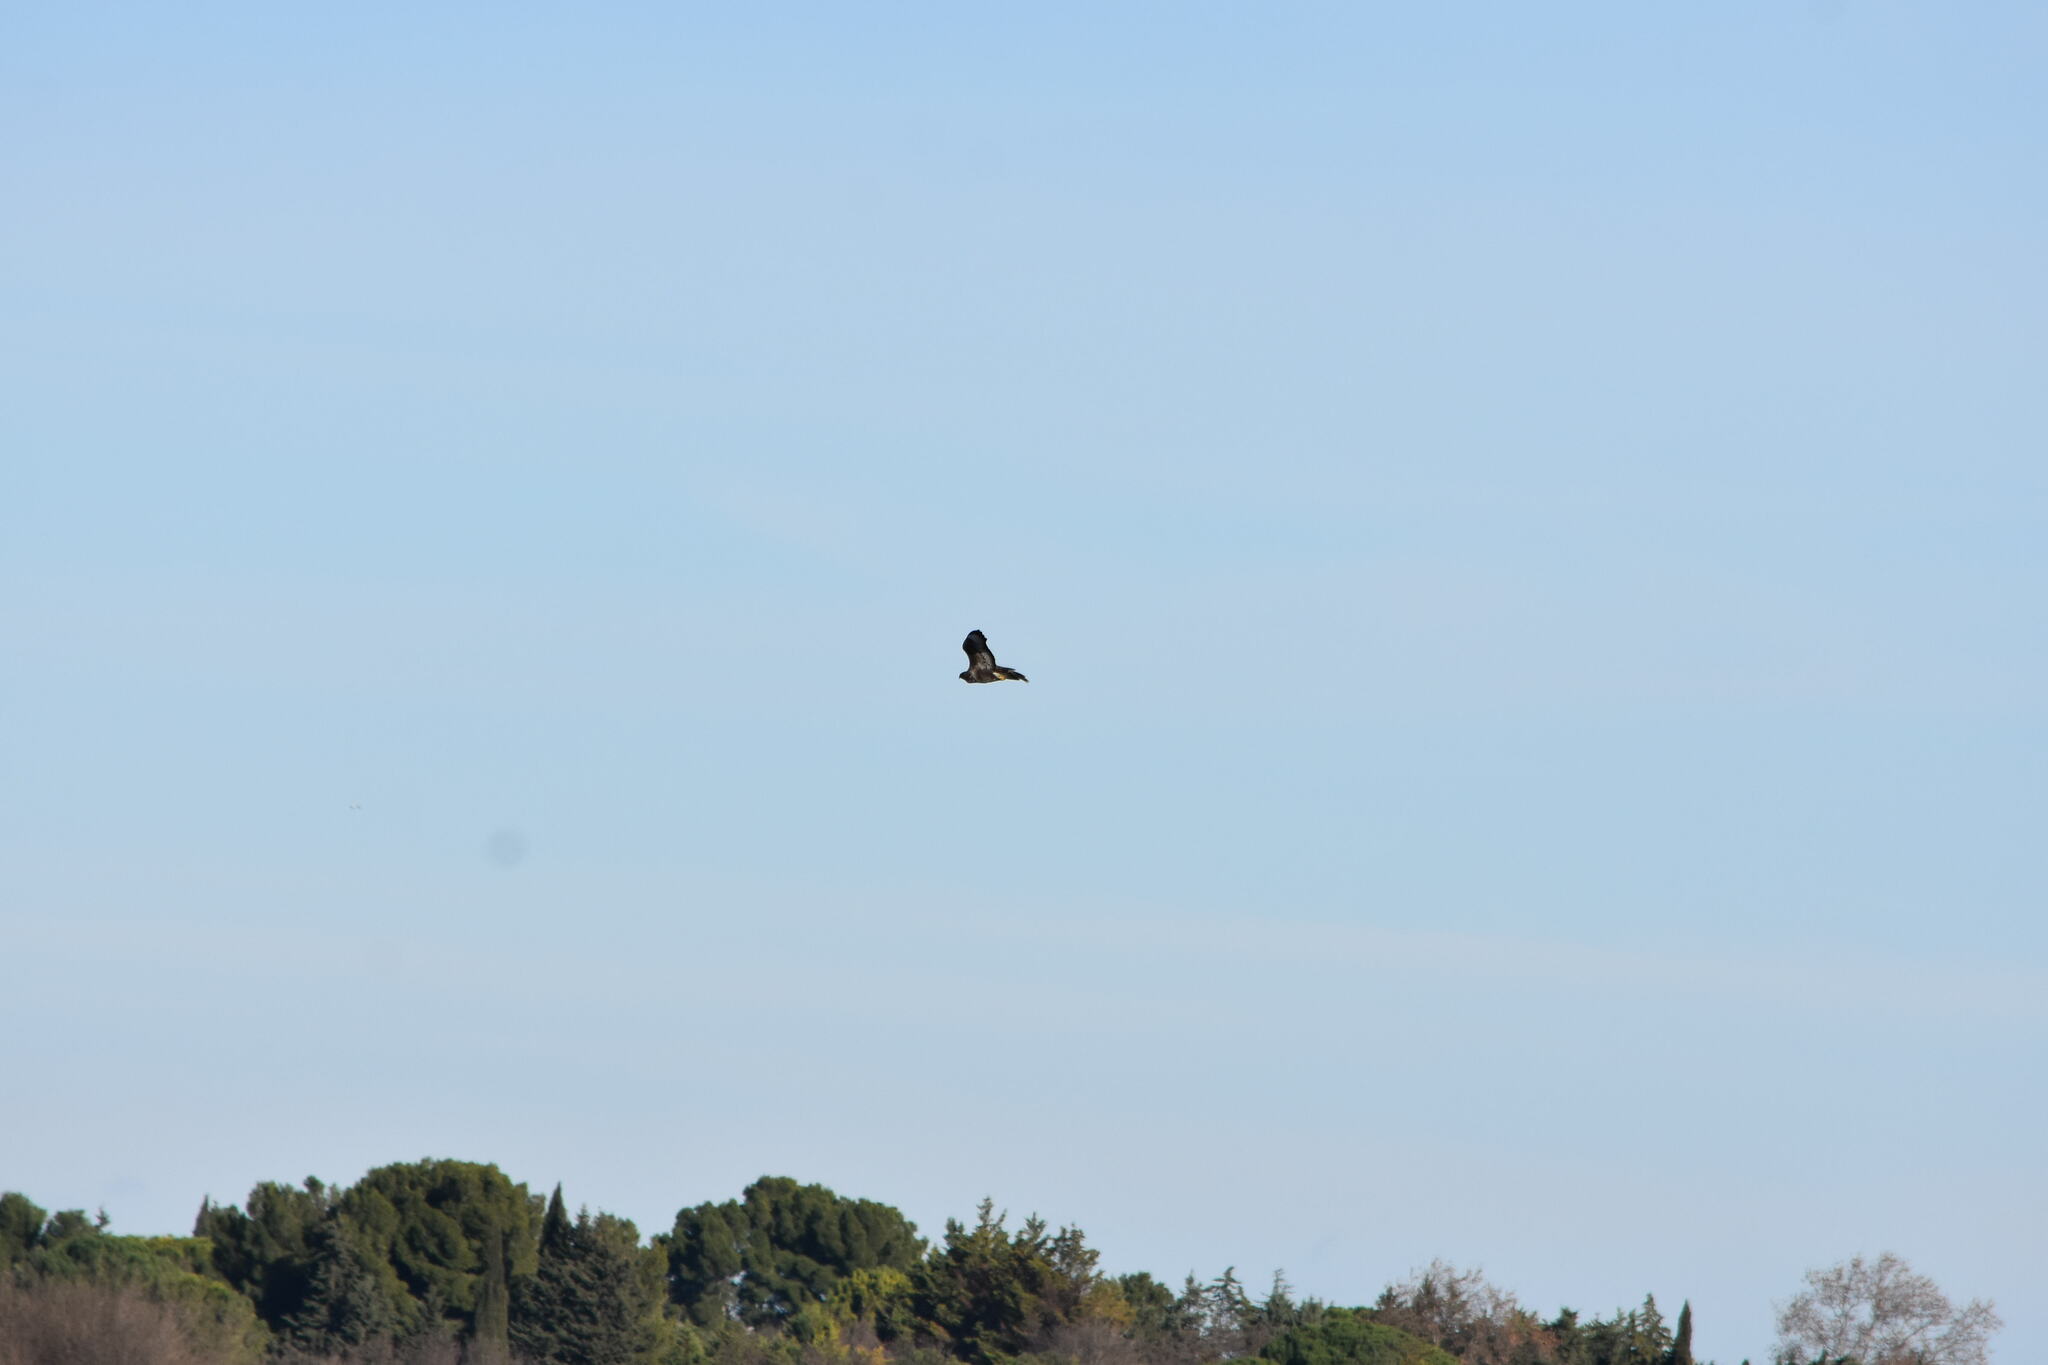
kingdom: Animalia
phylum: Chordata
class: Aves
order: Accipitriformes
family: Accipitridae
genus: Buteo
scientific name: Buteo buteo
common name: Common buzzard
